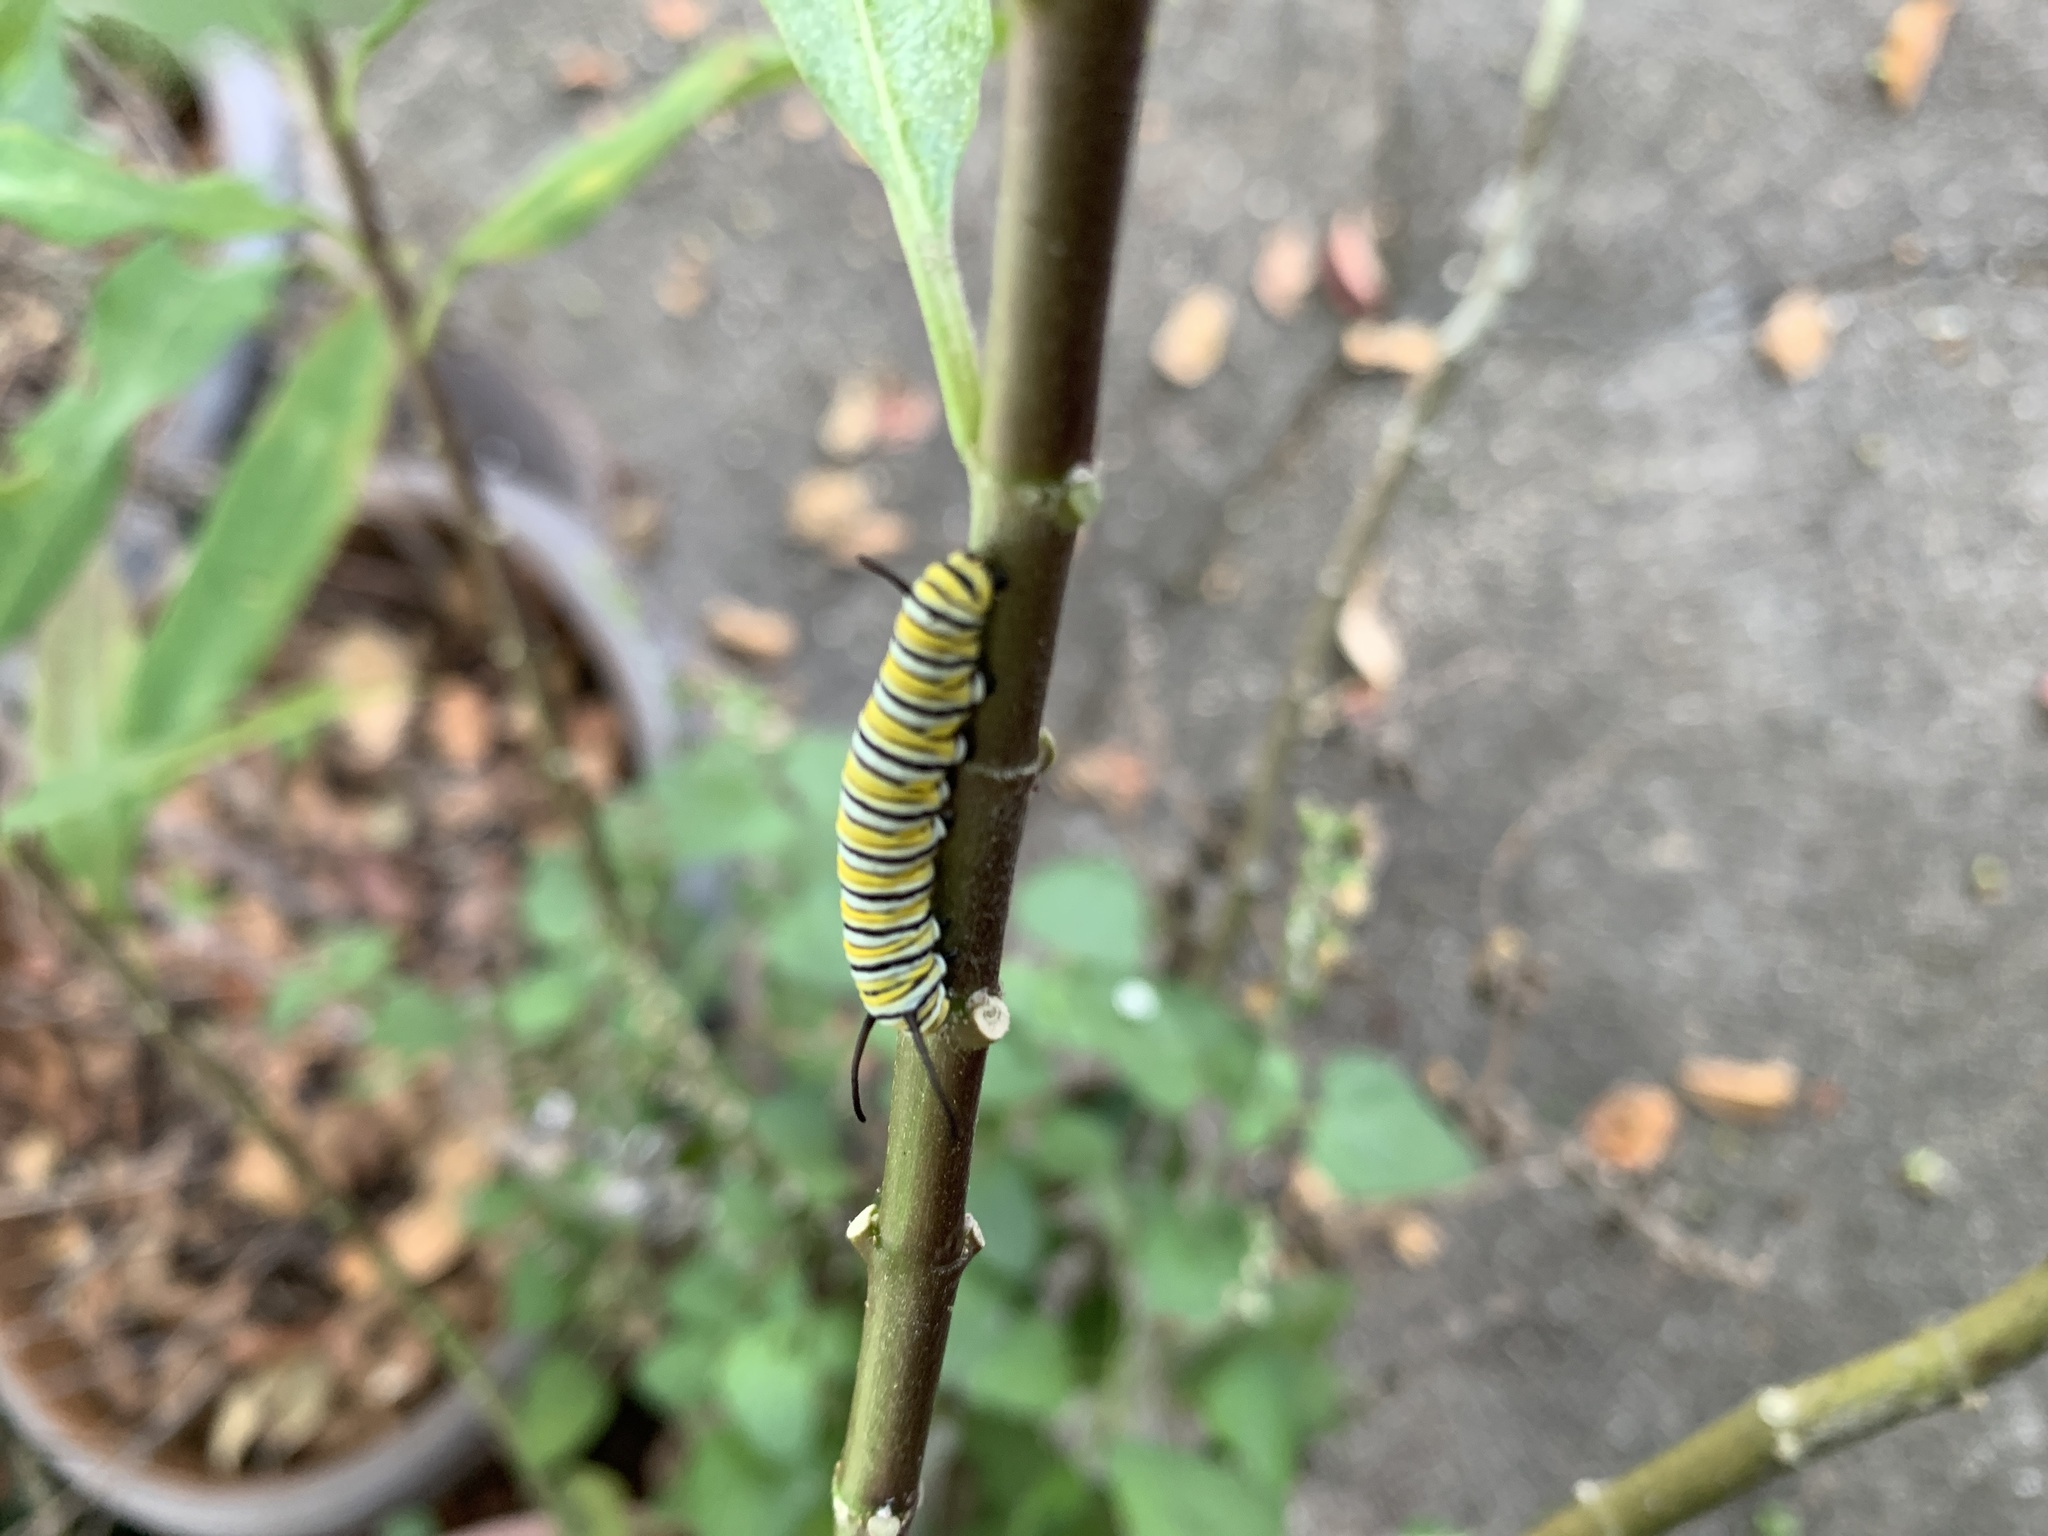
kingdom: Animalia
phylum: Arthropoda
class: Insecta
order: Lepidoptera
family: Nymphalidae
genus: Danaus
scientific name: Danaus plexippus
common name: Monarch
